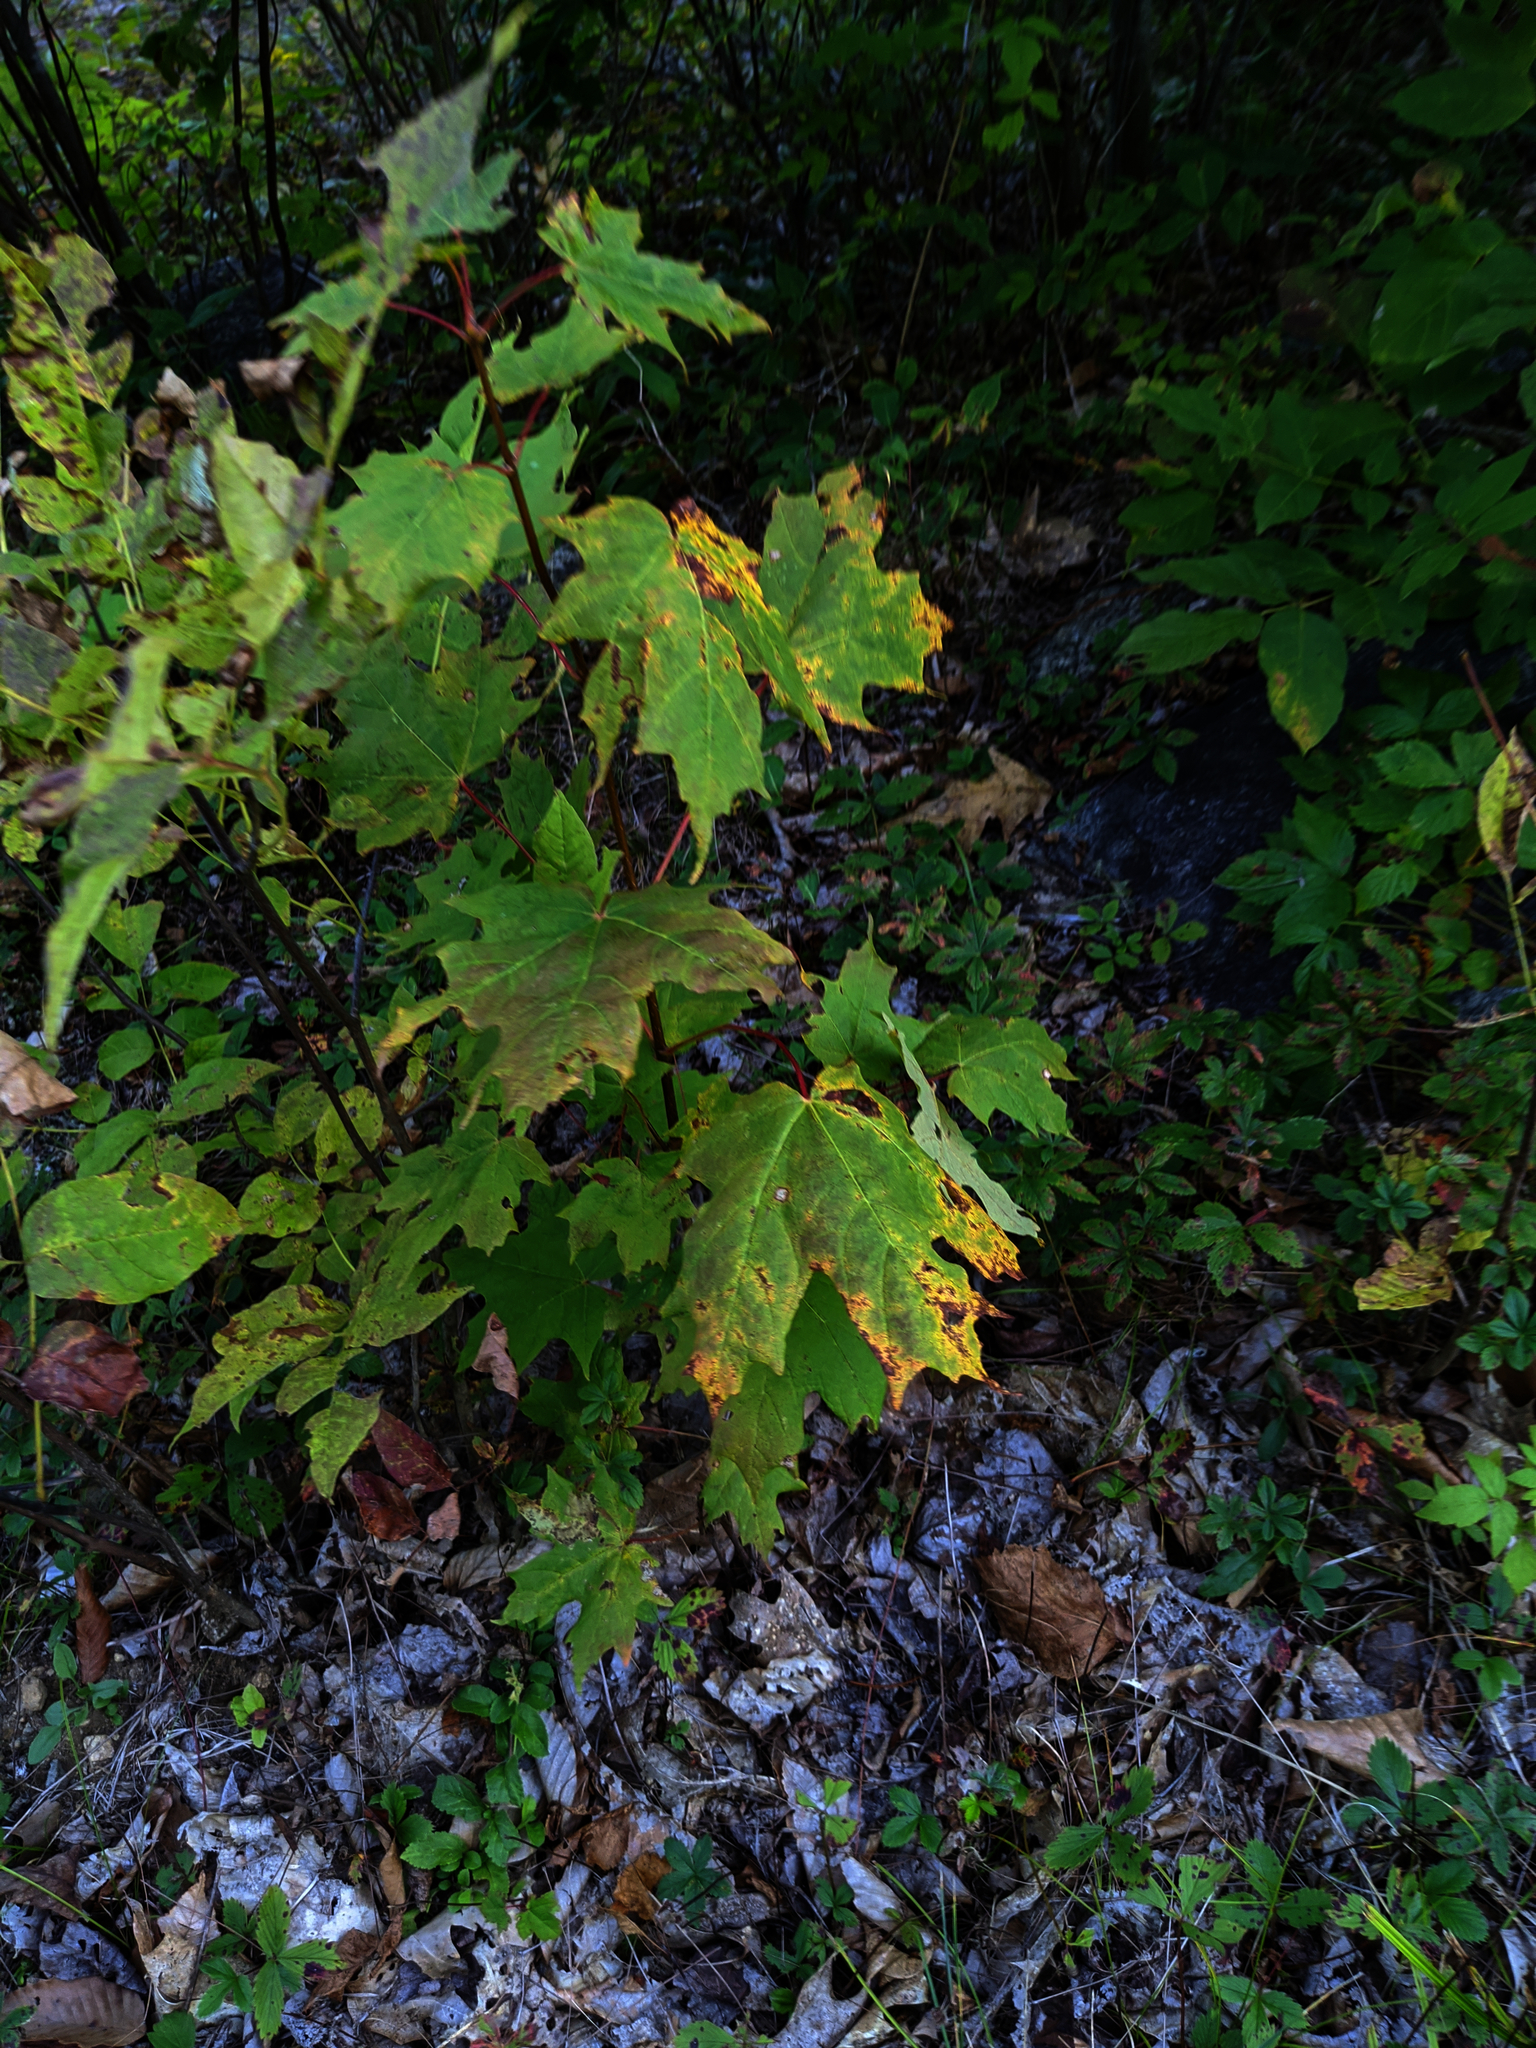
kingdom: Plantae
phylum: Tracheophyta
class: Magnoliopsida
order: Sapindales
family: Sapindaceae
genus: Acer
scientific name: Acer saccharum
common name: Sugar maple
